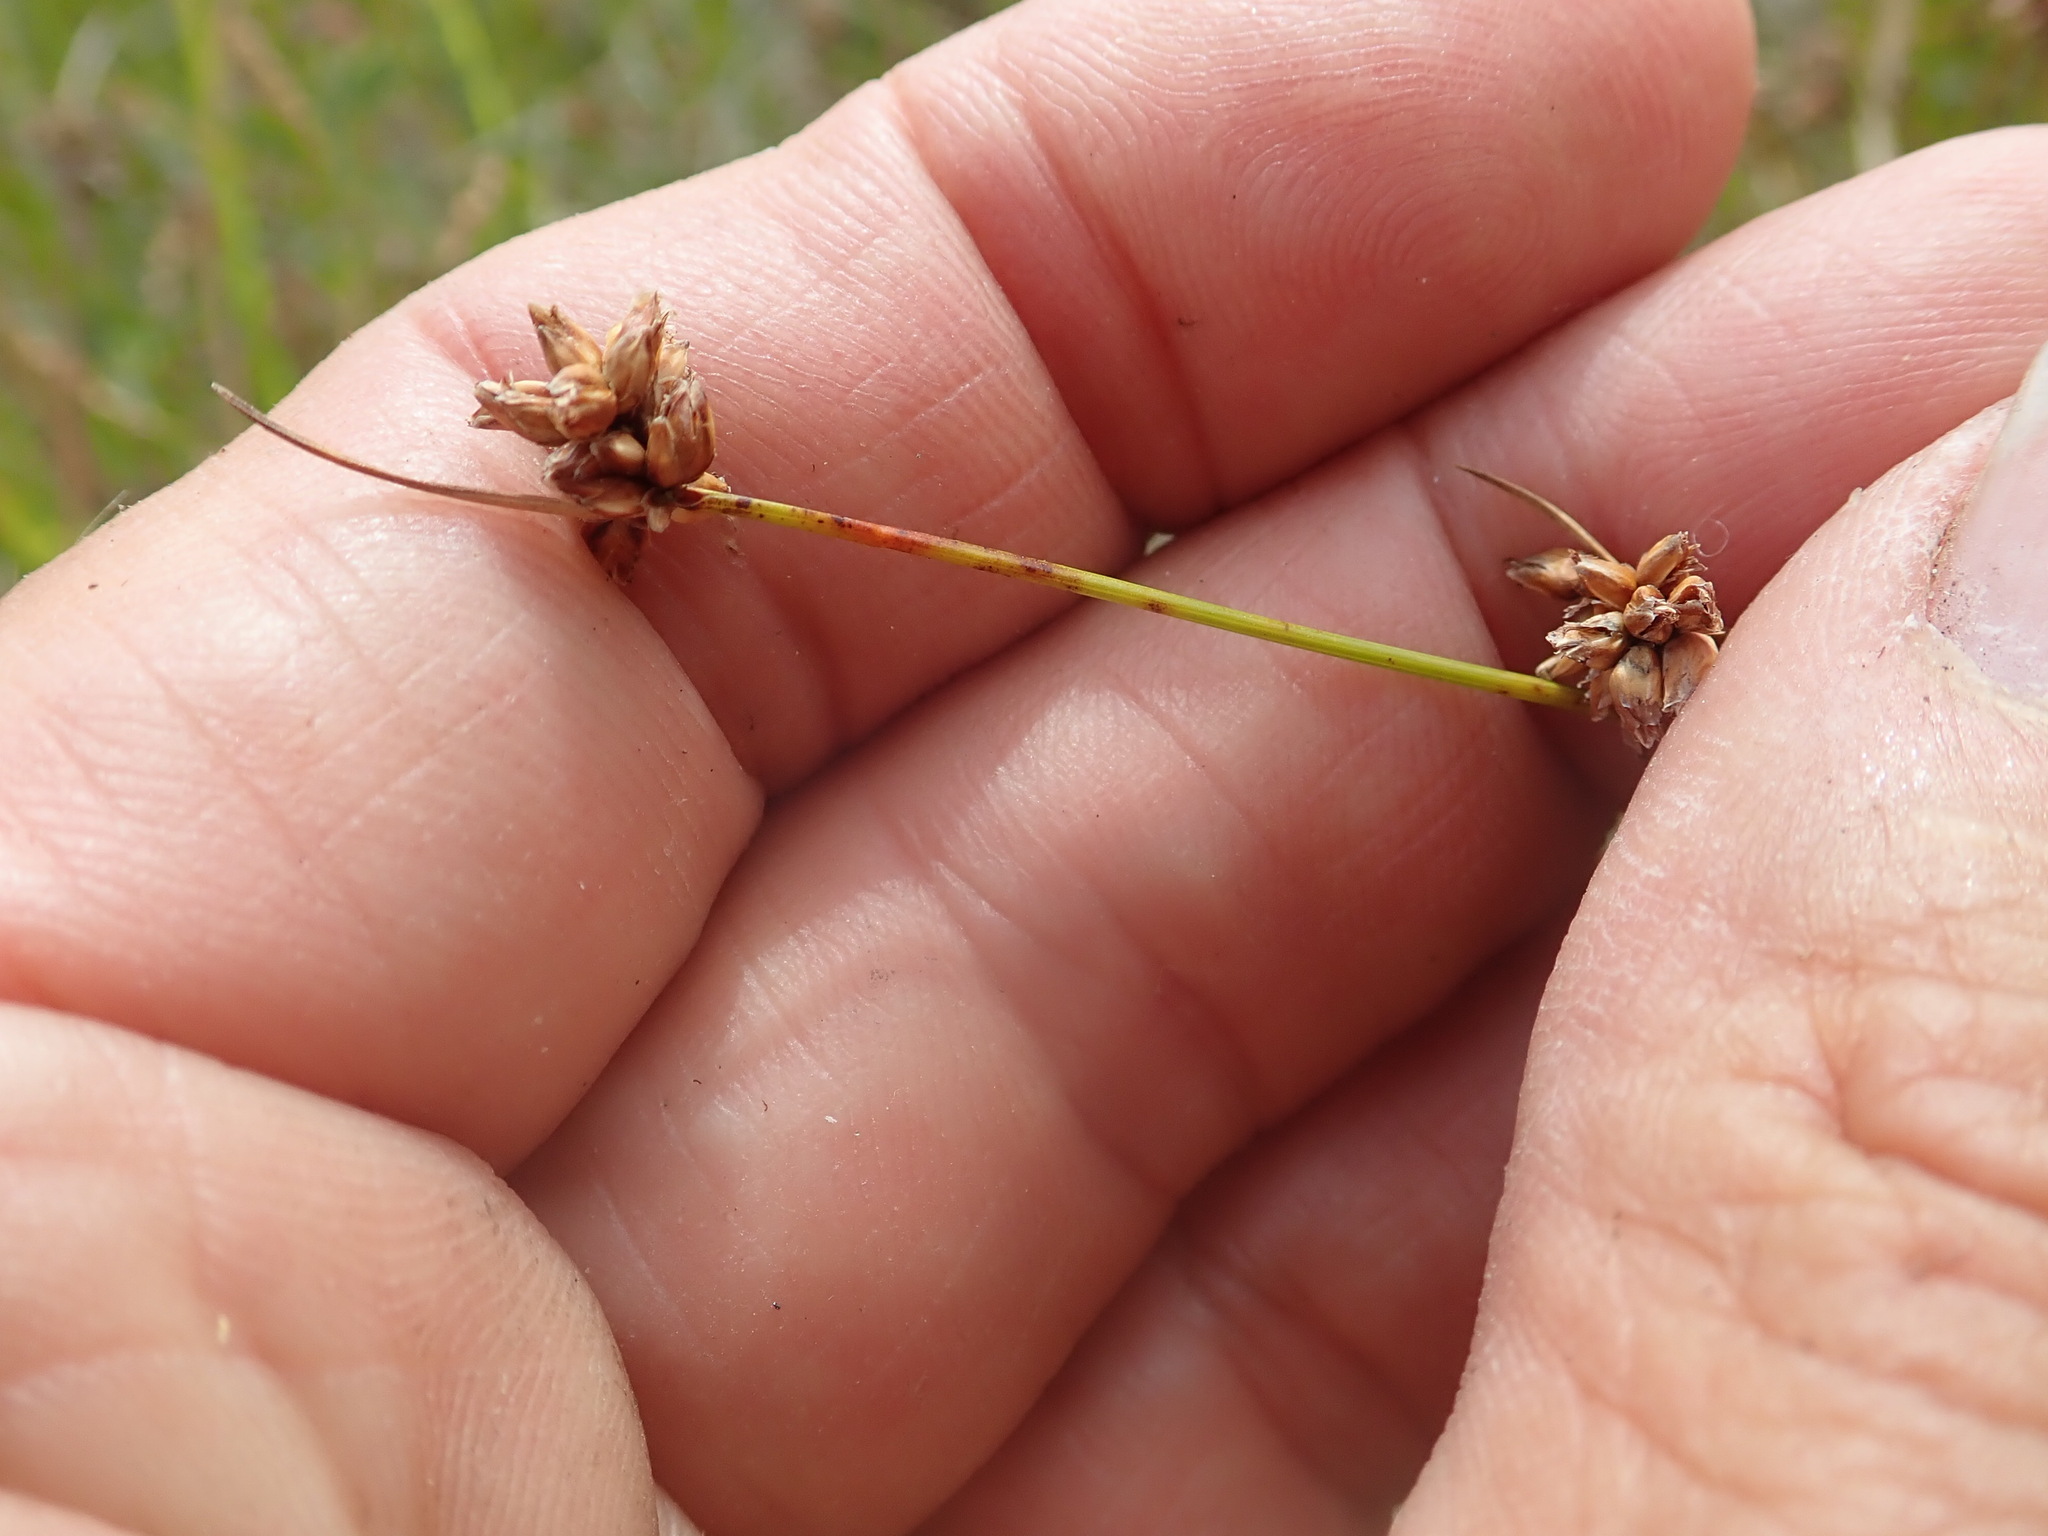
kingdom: Plantae
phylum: Tracheophyta
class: Liliopsida
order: Poales
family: Cyperaceae
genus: Schoenus
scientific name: Schoenus nitens
